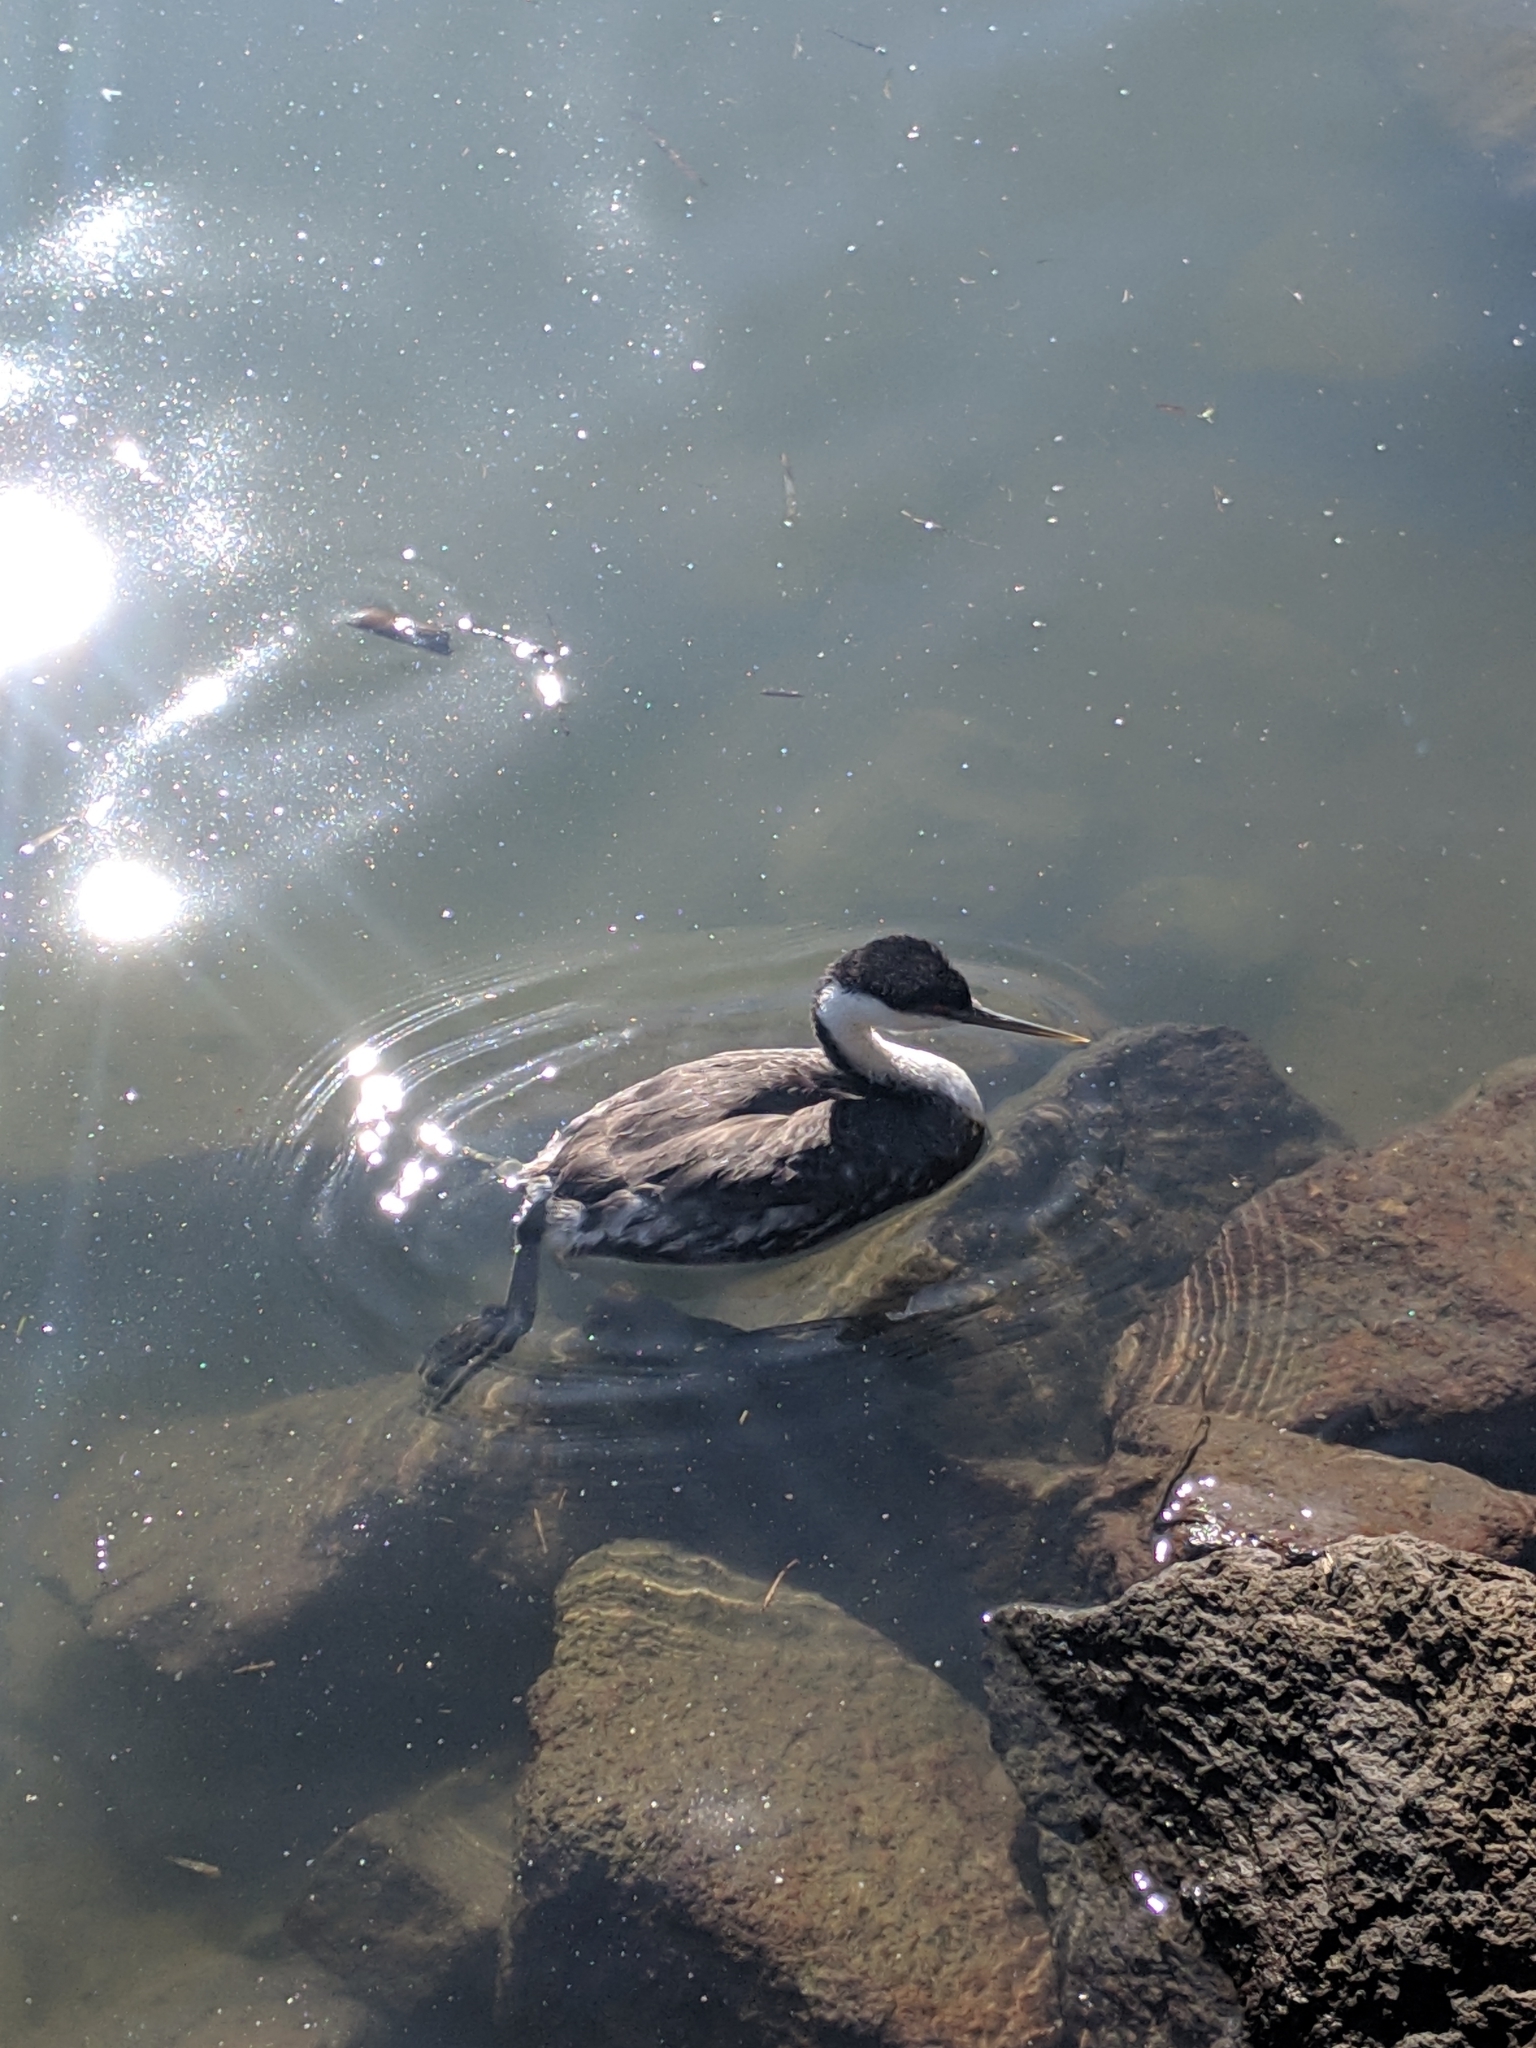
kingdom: Animalia
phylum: Chordata
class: Aves
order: Podicipediformes
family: Podicipedidae
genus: Aechmophorus
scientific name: Aechmophorus occidentalis
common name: Western grebe
